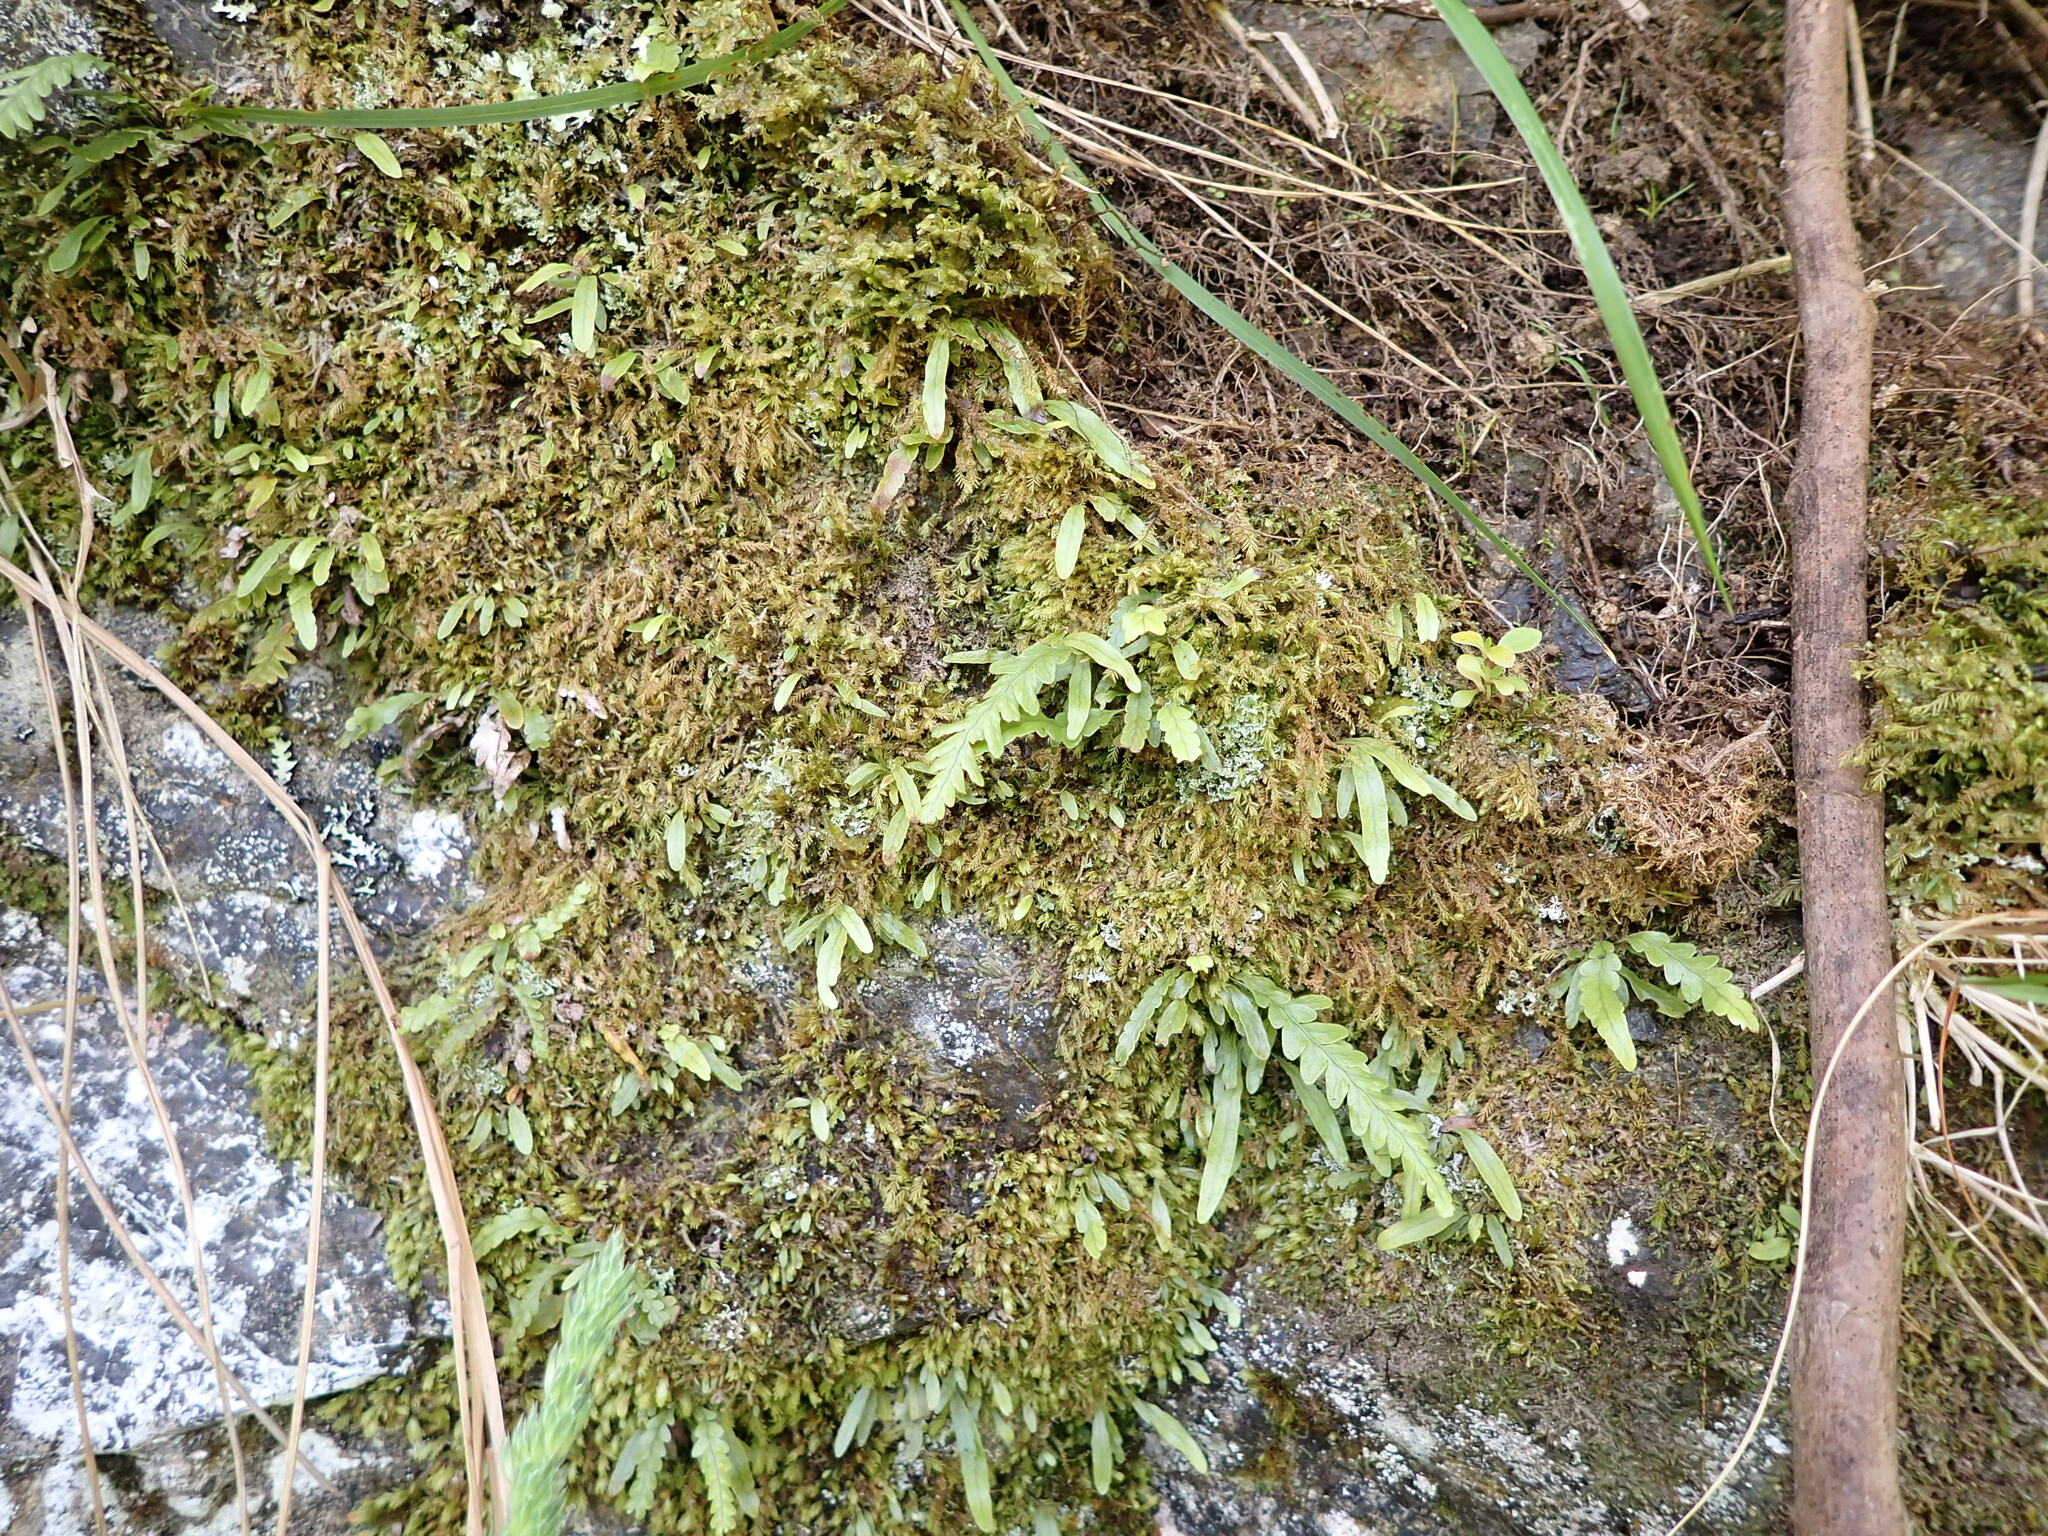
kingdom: Plantae
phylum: Tracheophyta
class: Polypodiopsida
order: Polypodiales
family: Polypodiaceae
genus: Notogrammitis
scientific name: Notogrammitis heterophylla
